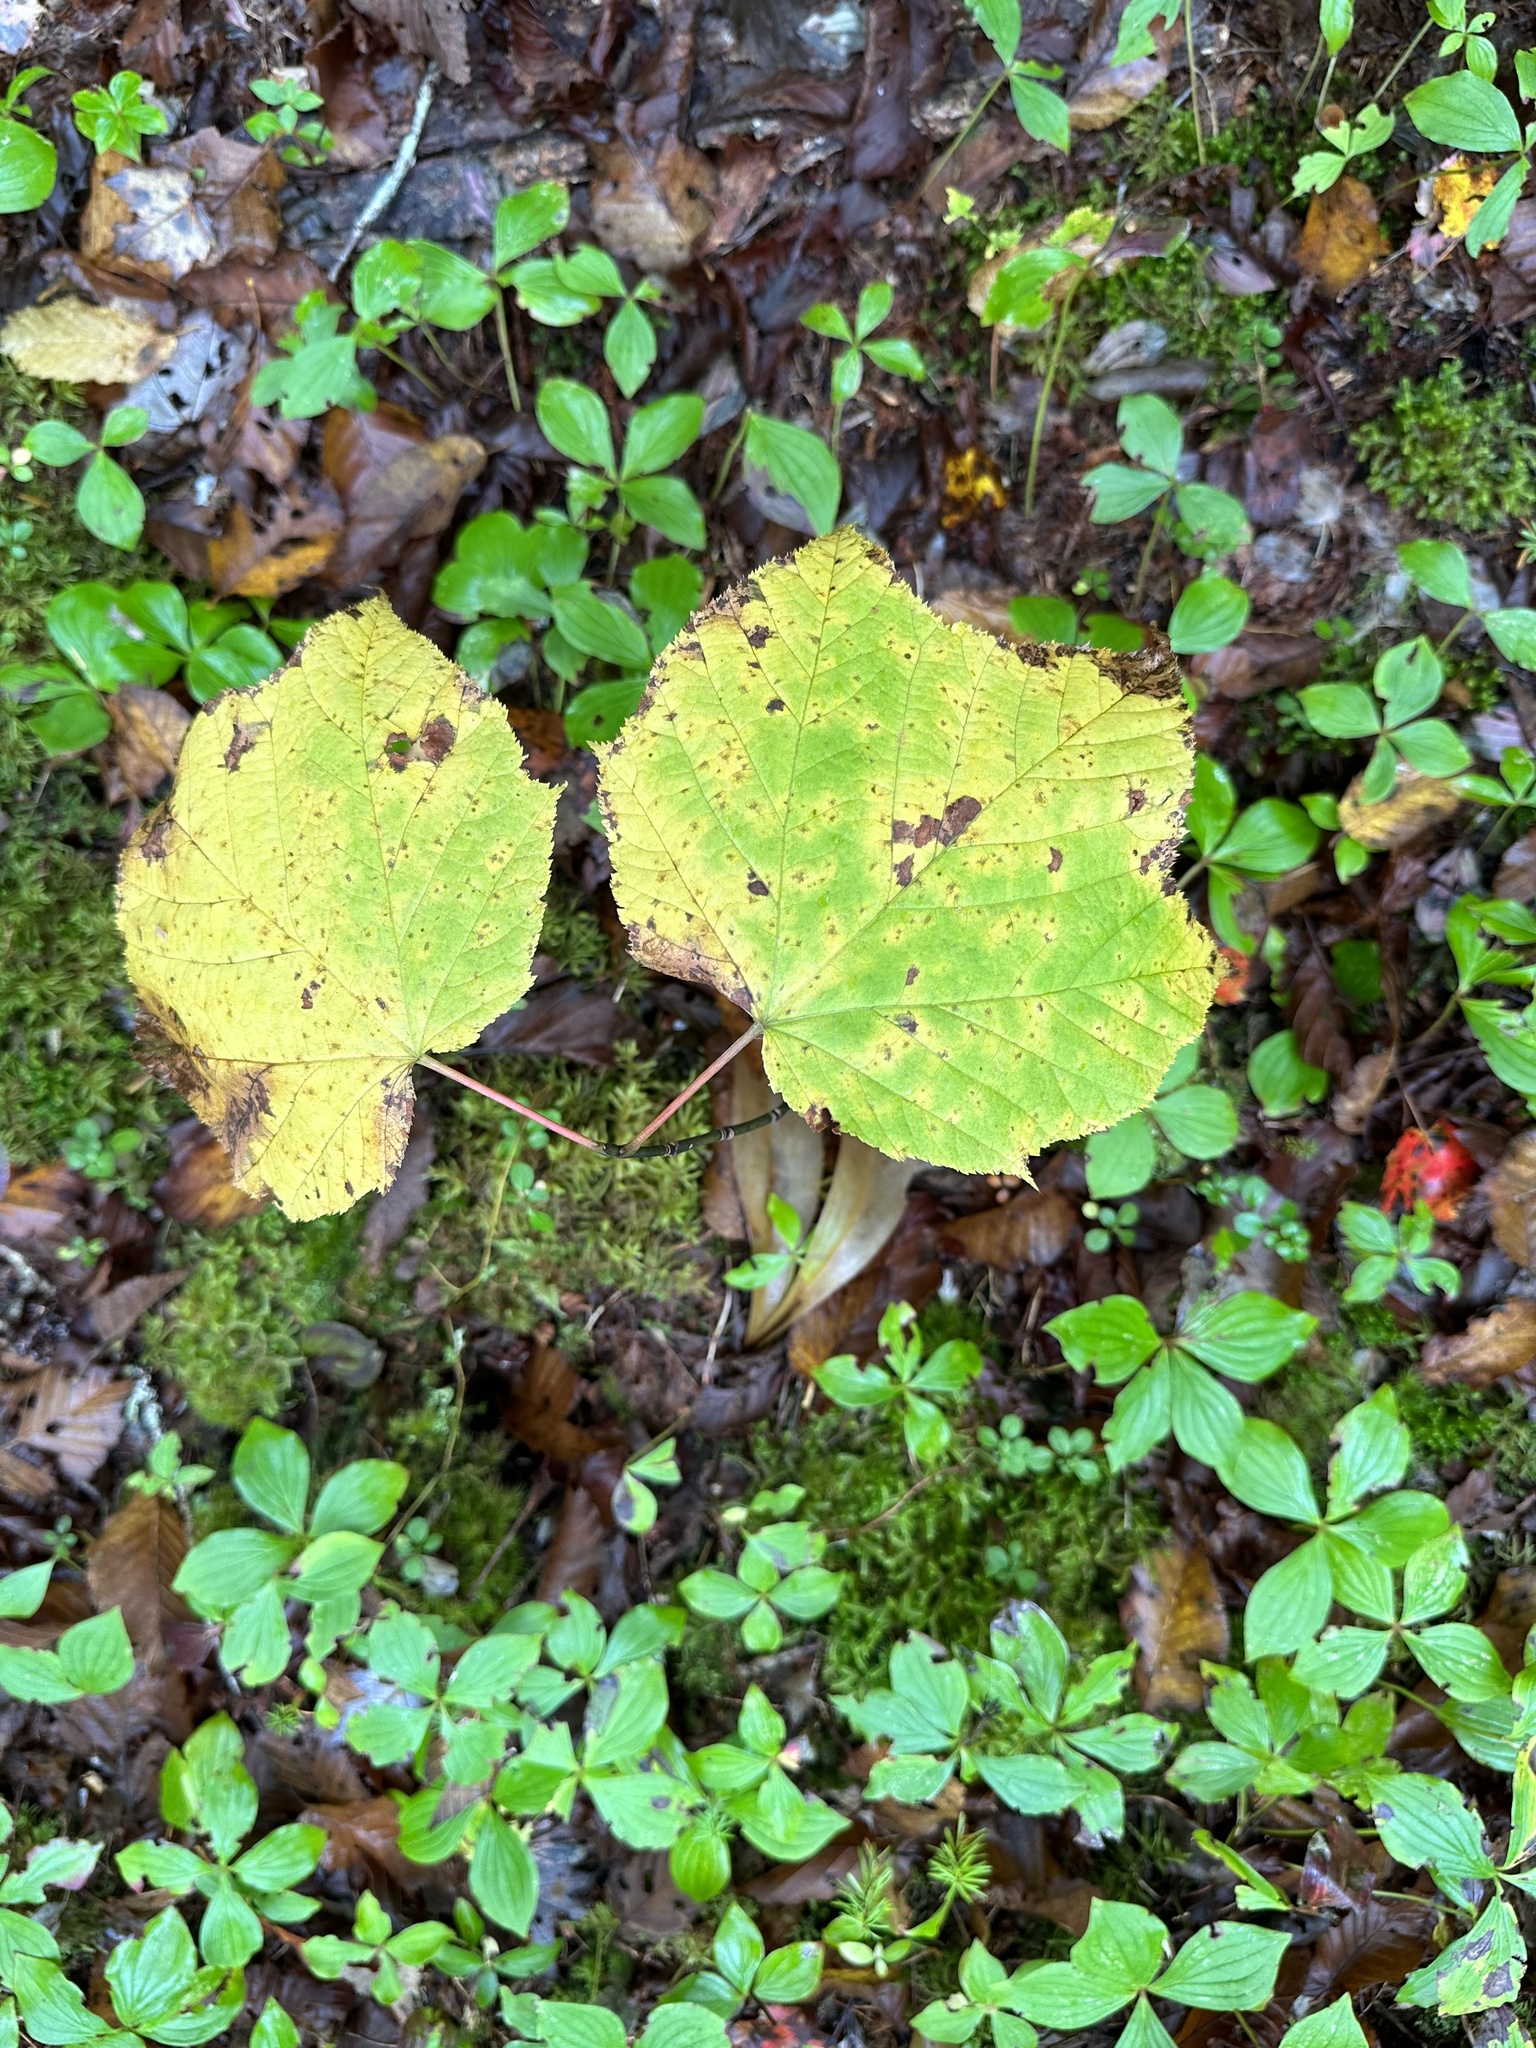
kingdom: Plantae
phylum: Tracheophyta
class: Magnoliopsida
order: Sapindales
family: Sapindaceae
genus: Acer
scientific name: Acer pensylvanicum
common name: Moosewood
